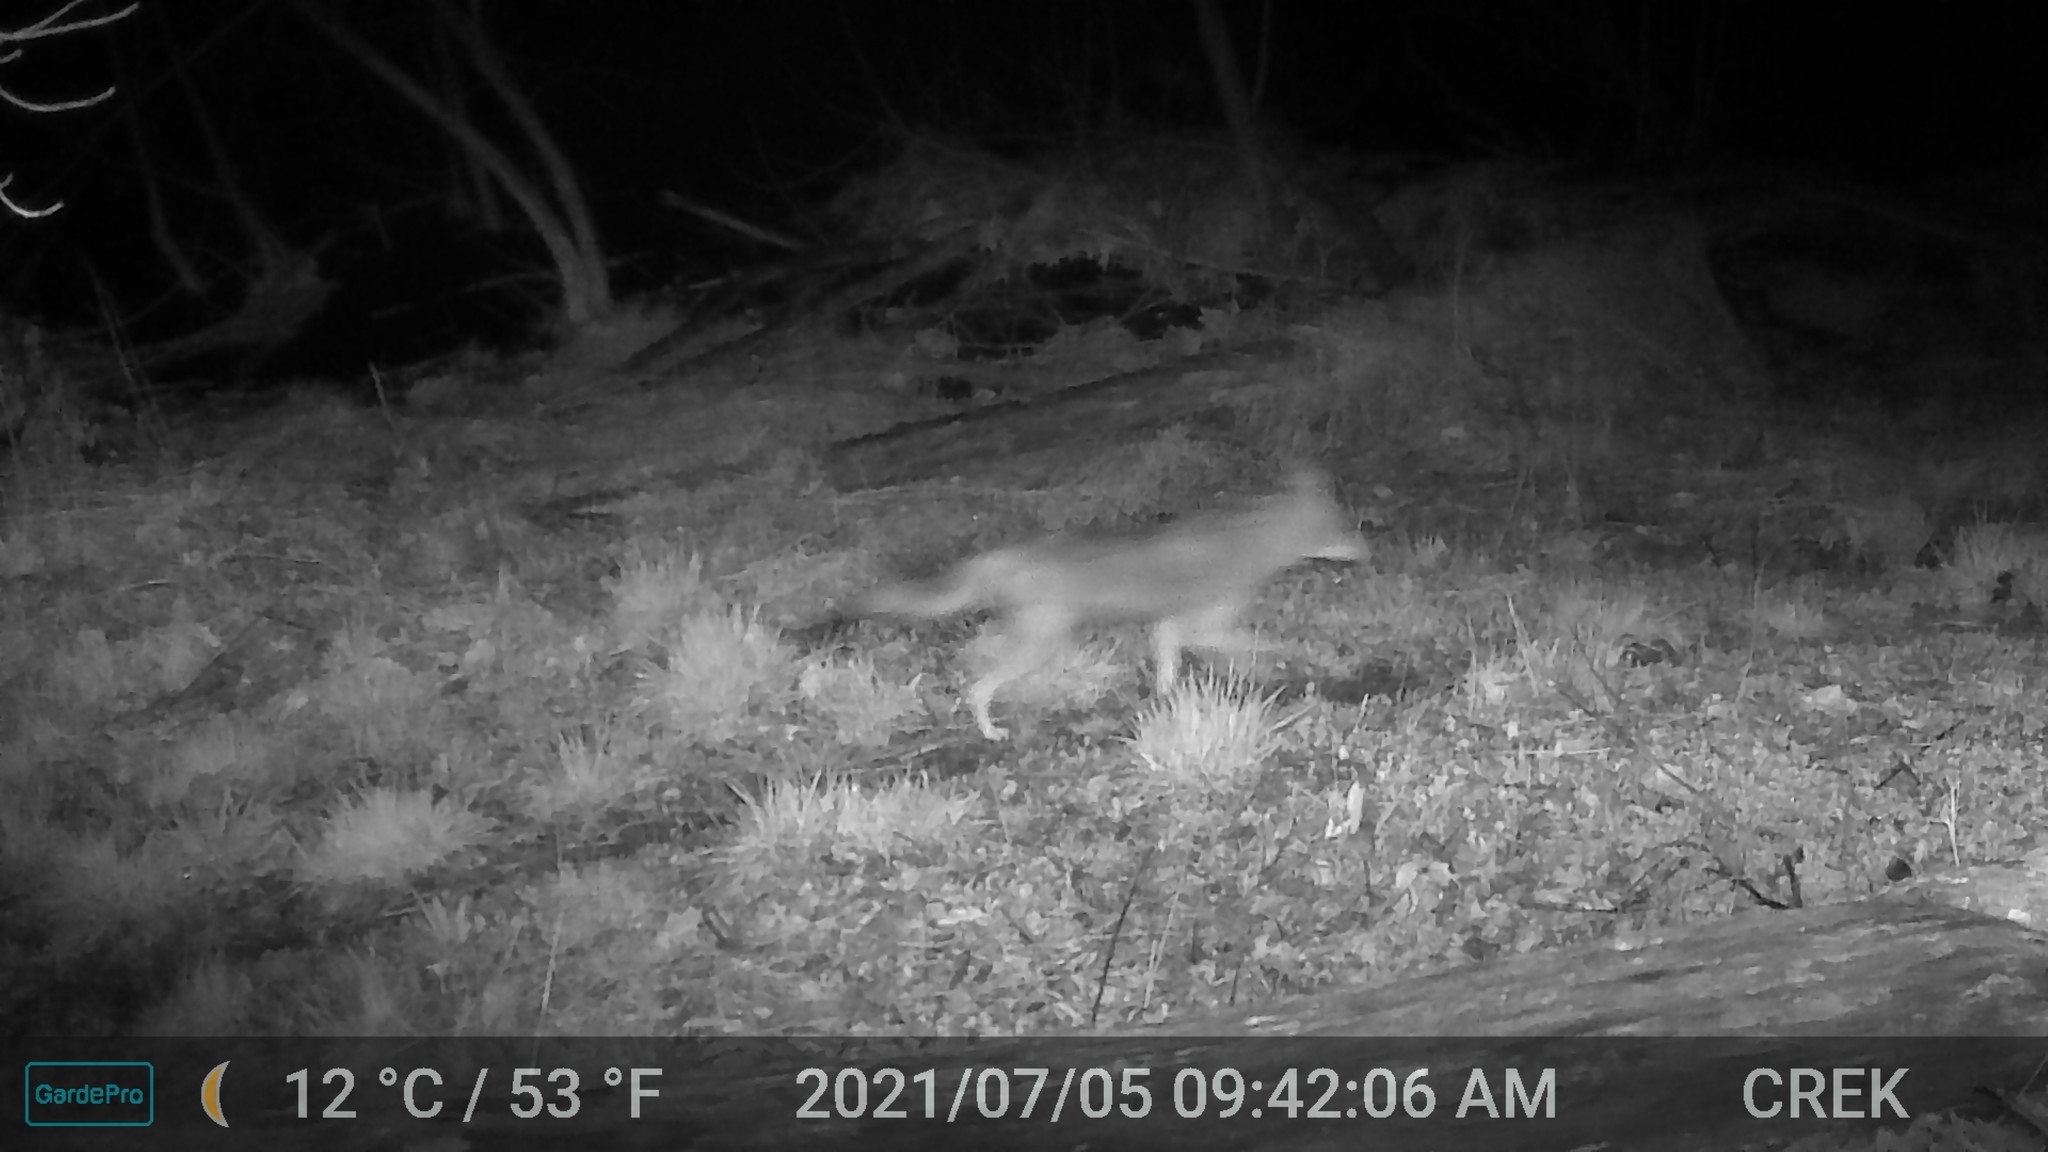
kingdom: Animalia
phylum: Chordata
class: Mammalia
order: Carnivora
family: Canidae
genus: Canis
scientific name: Canis latrans
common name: Coyote
